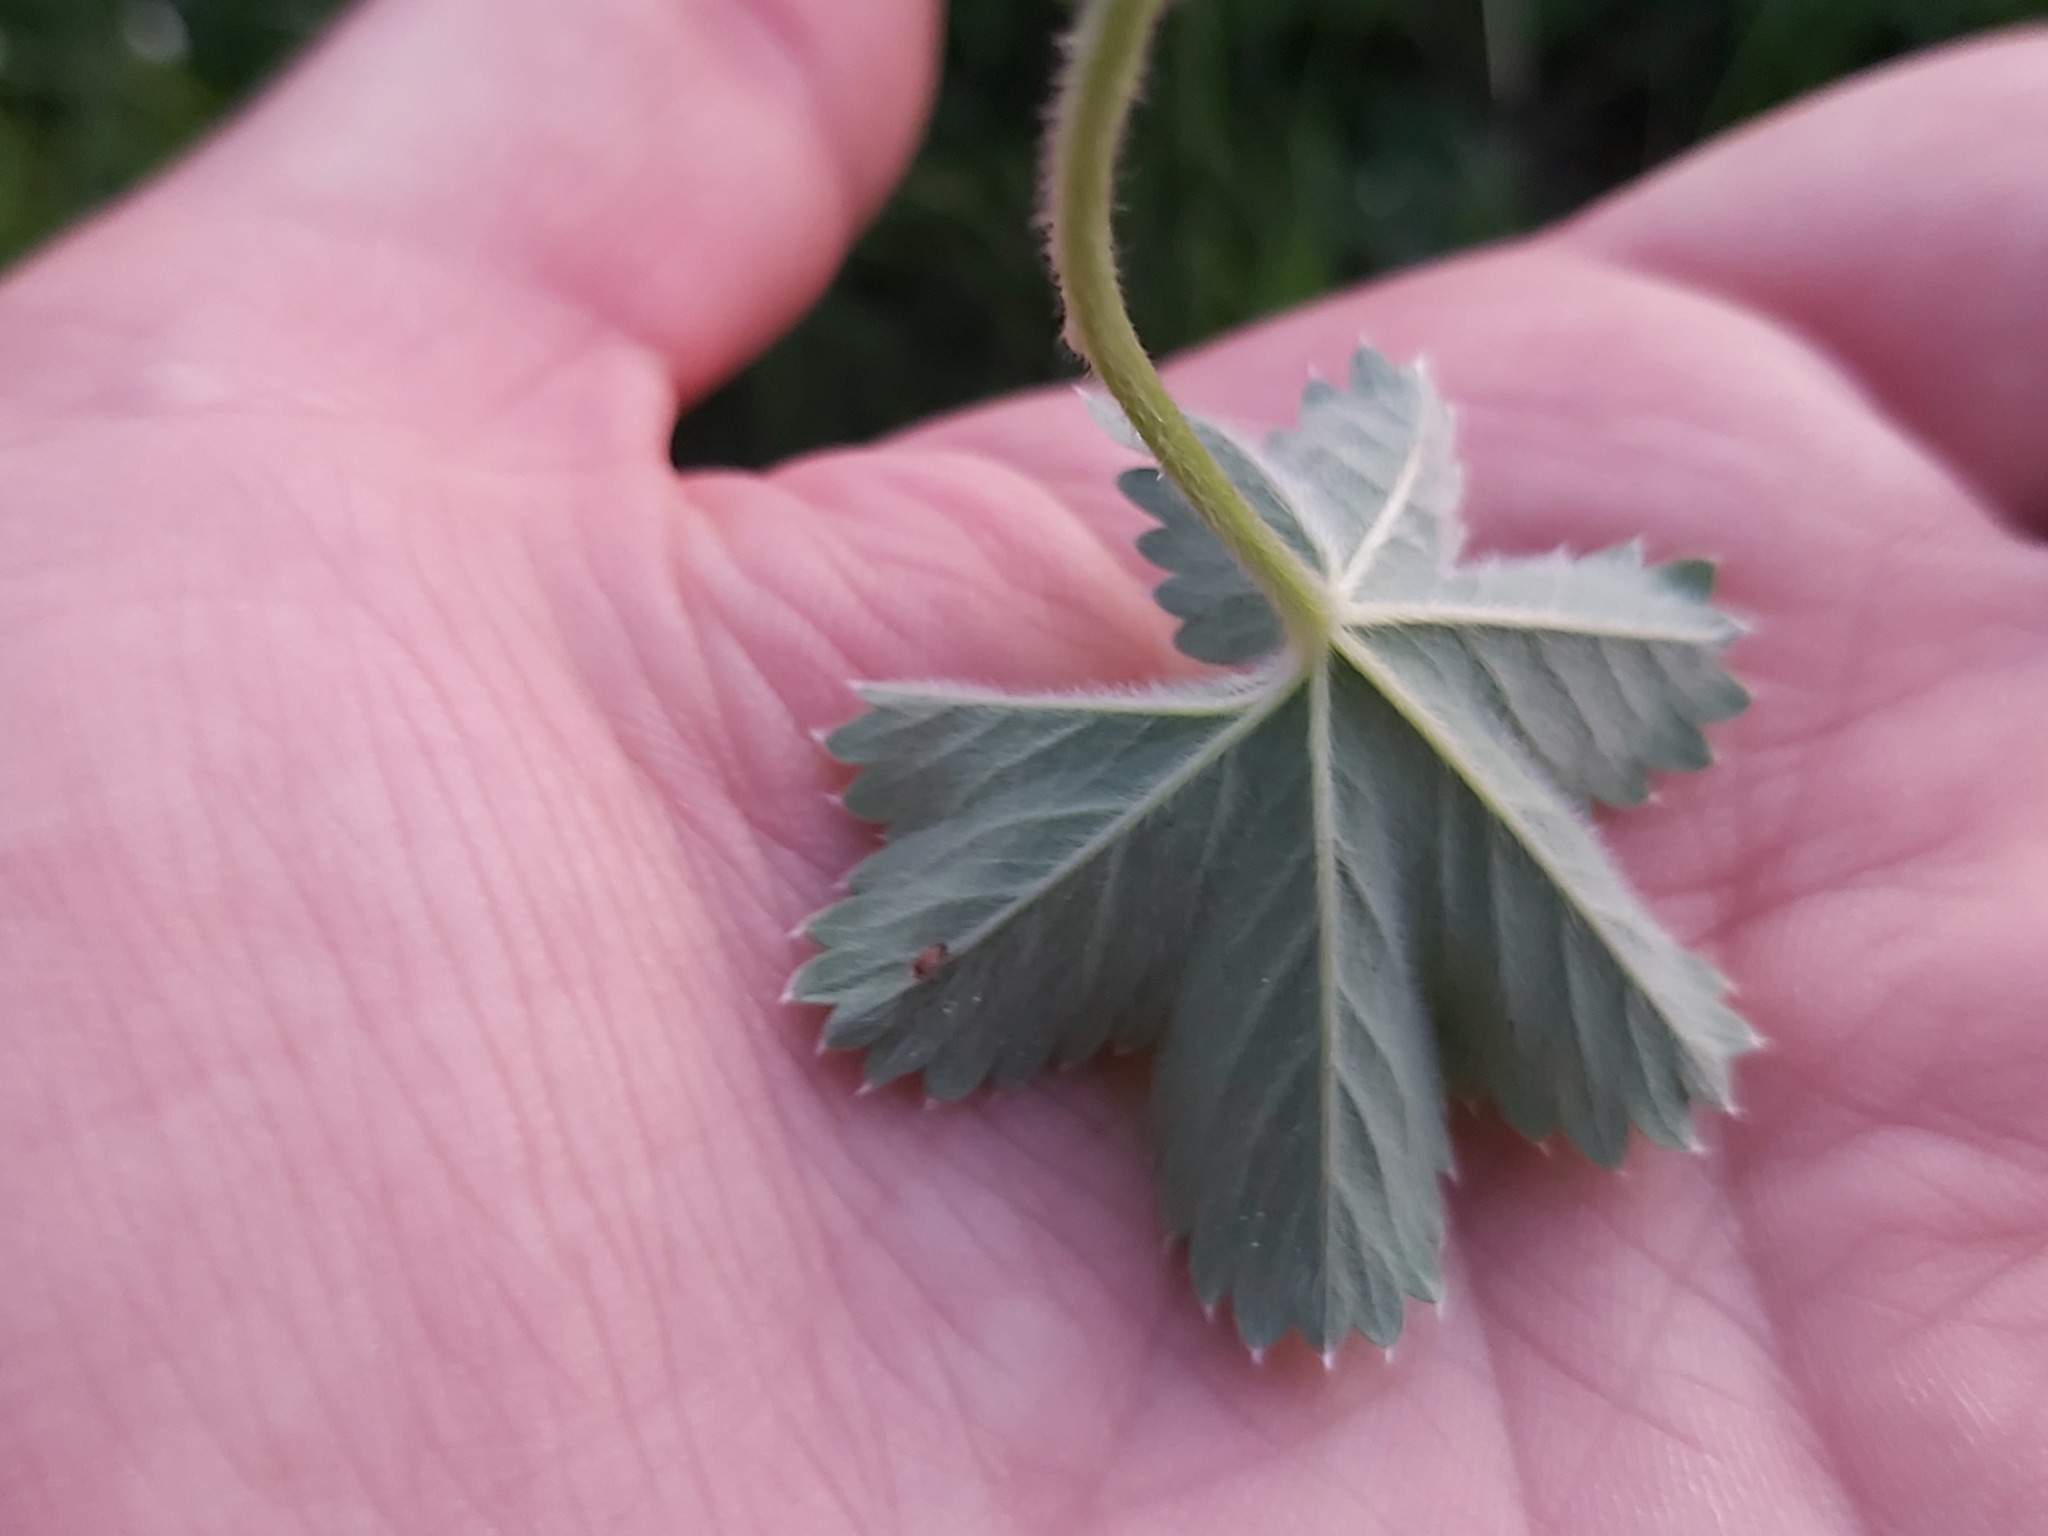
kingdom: Plantae
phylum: Tracheophyta
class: Magnoliopsida
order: Rosales
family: Rosaceae
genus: Alchemilla
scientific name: Alchemilla glaucescens
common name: Silky lady's mantle
